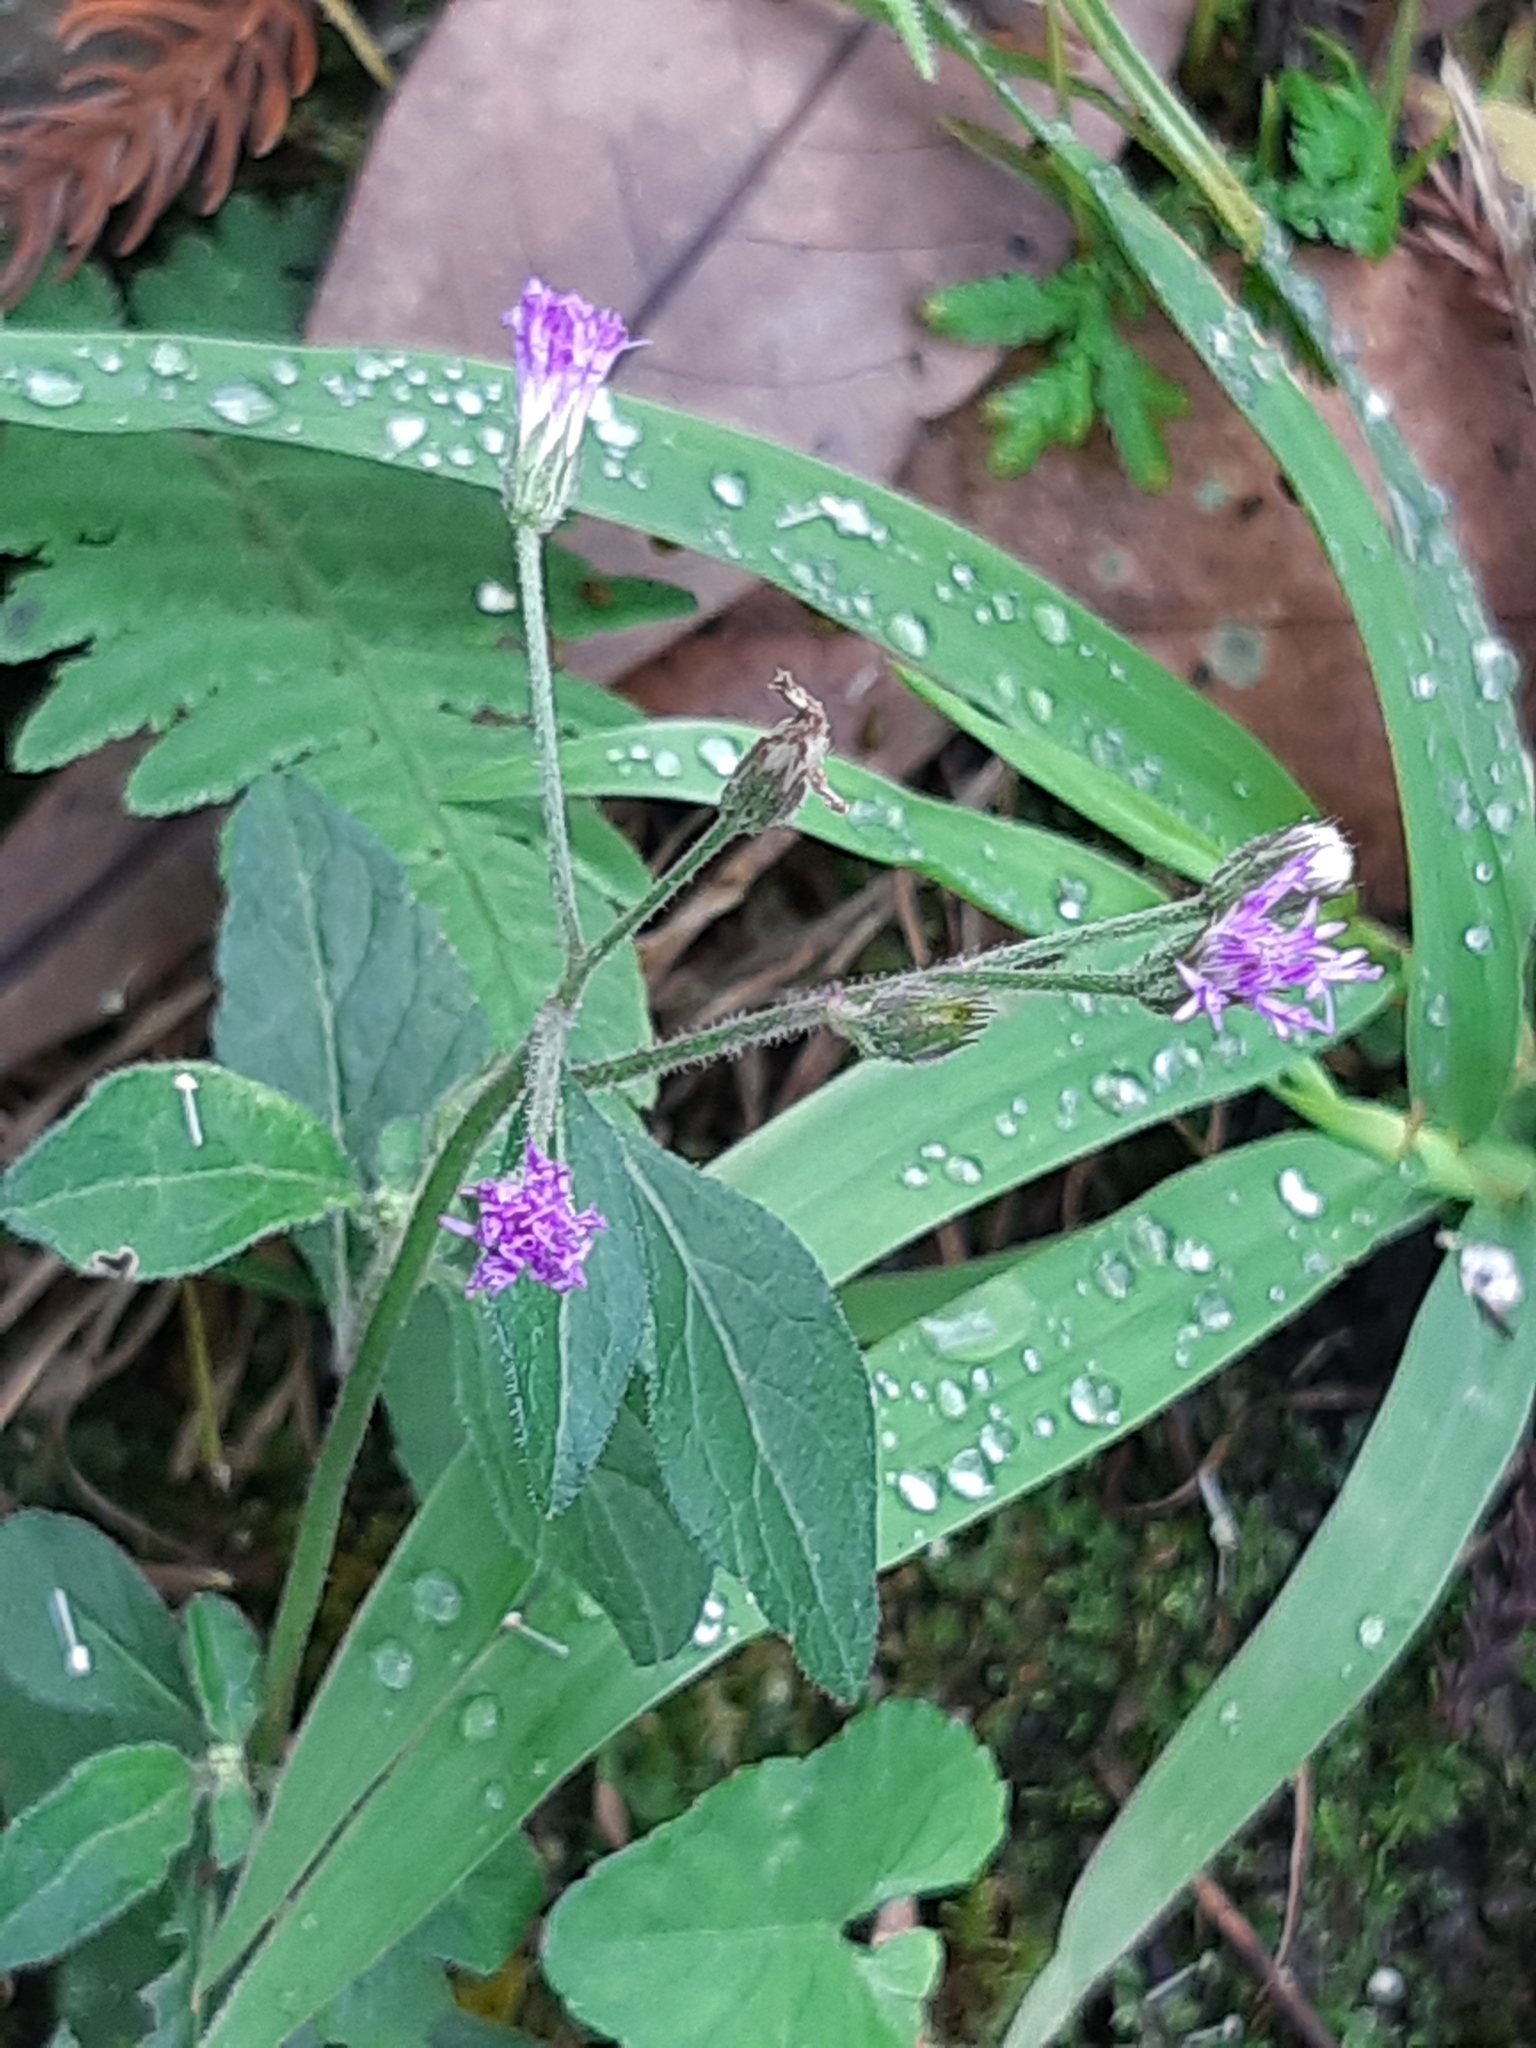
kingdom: Plantae
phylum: Tracheophyta
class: Magnoliopsida
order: Asterales
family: Asteraceae
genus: Cyanthillium
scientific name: Cyanthillium cinereum
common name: Little ironweed
